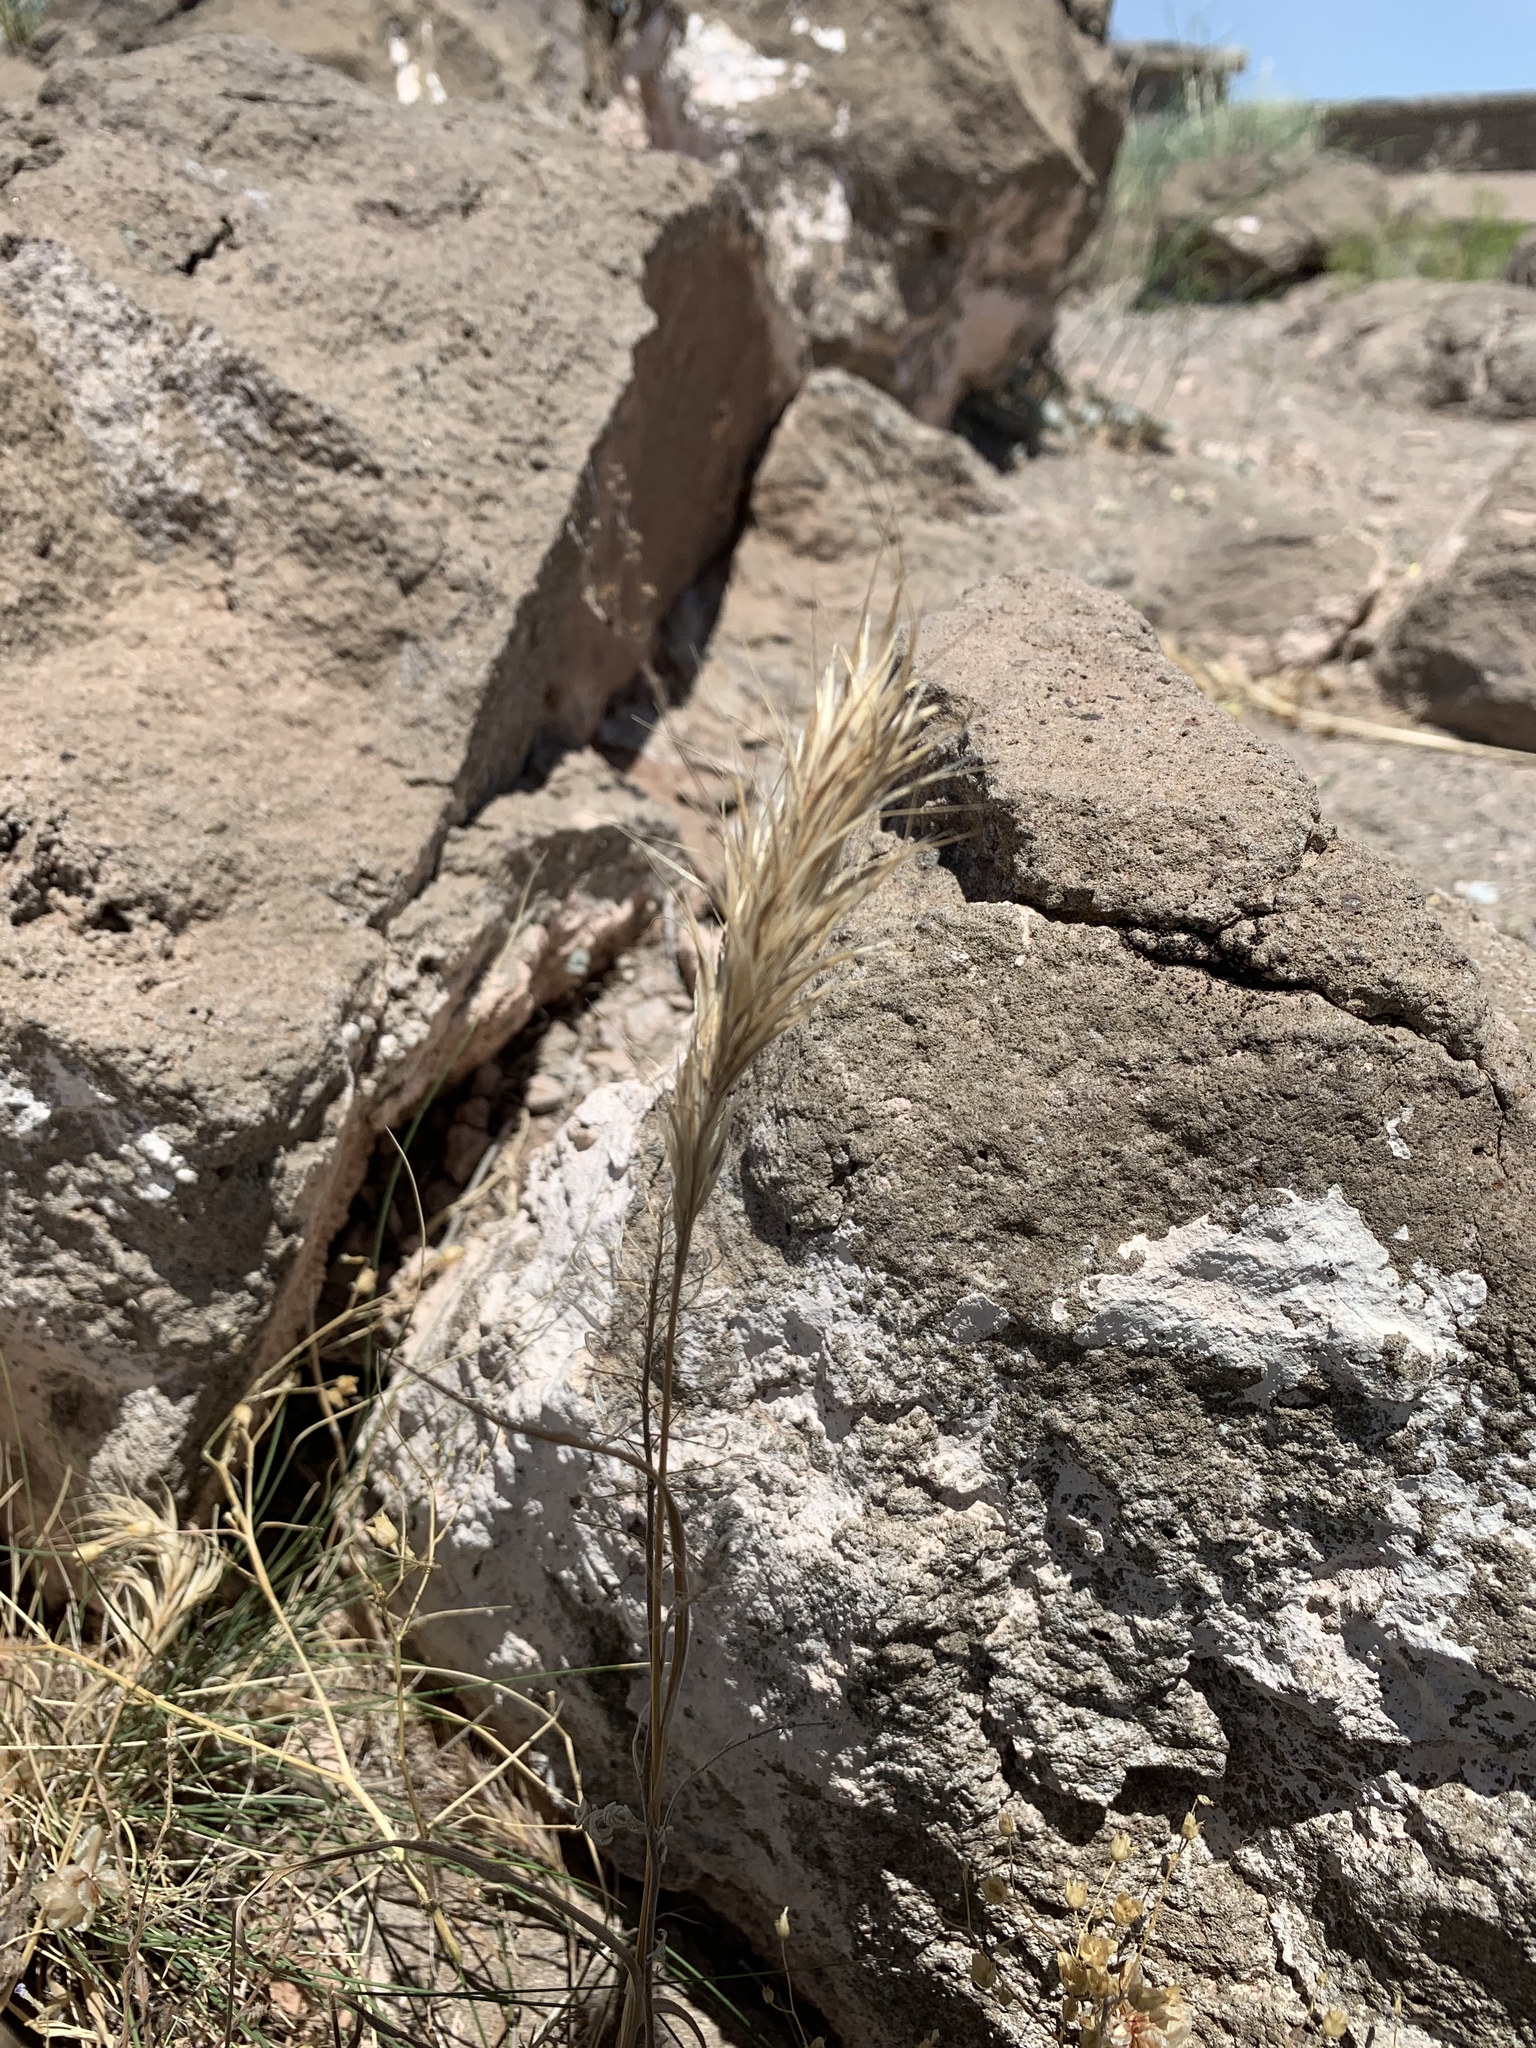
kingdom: Plantae
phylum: Tracheophyta
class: Liliopsida
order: Poales
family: Poaceae
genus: Bromus
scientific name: Bromus rubens
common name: Red brome
